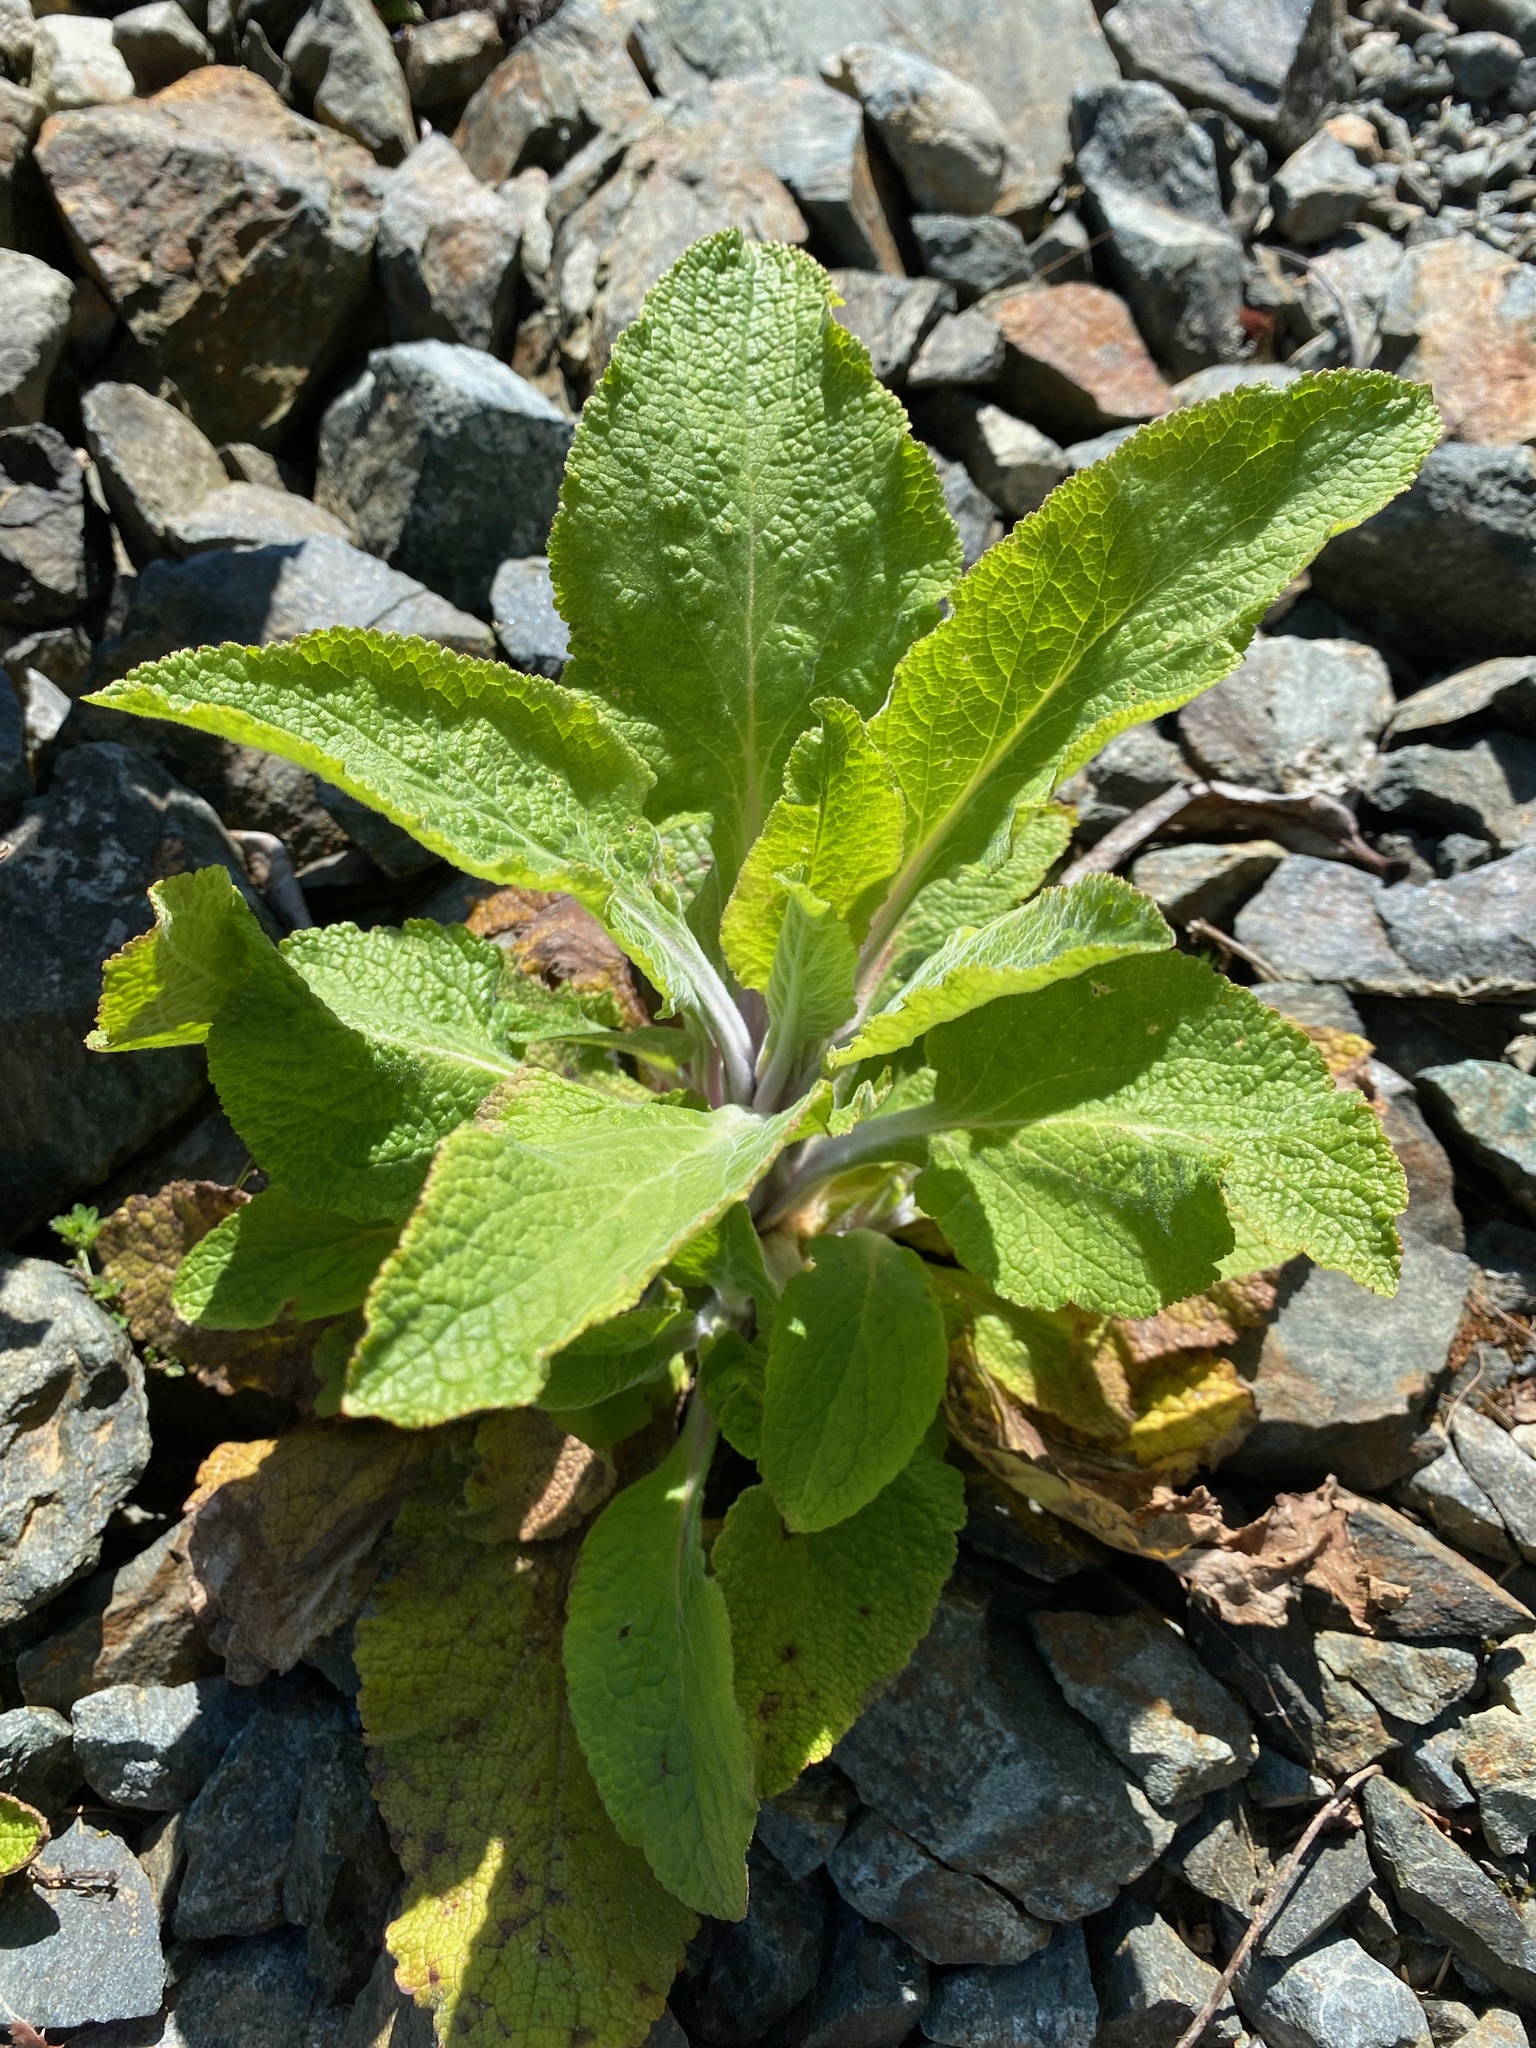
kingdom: Plantae
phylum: Tracheophyta
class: Magnoliopsida
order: Lamiales
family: Plantaginaceae
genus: Digitalis
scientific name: Digitalis purpurea
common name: Foxglove
